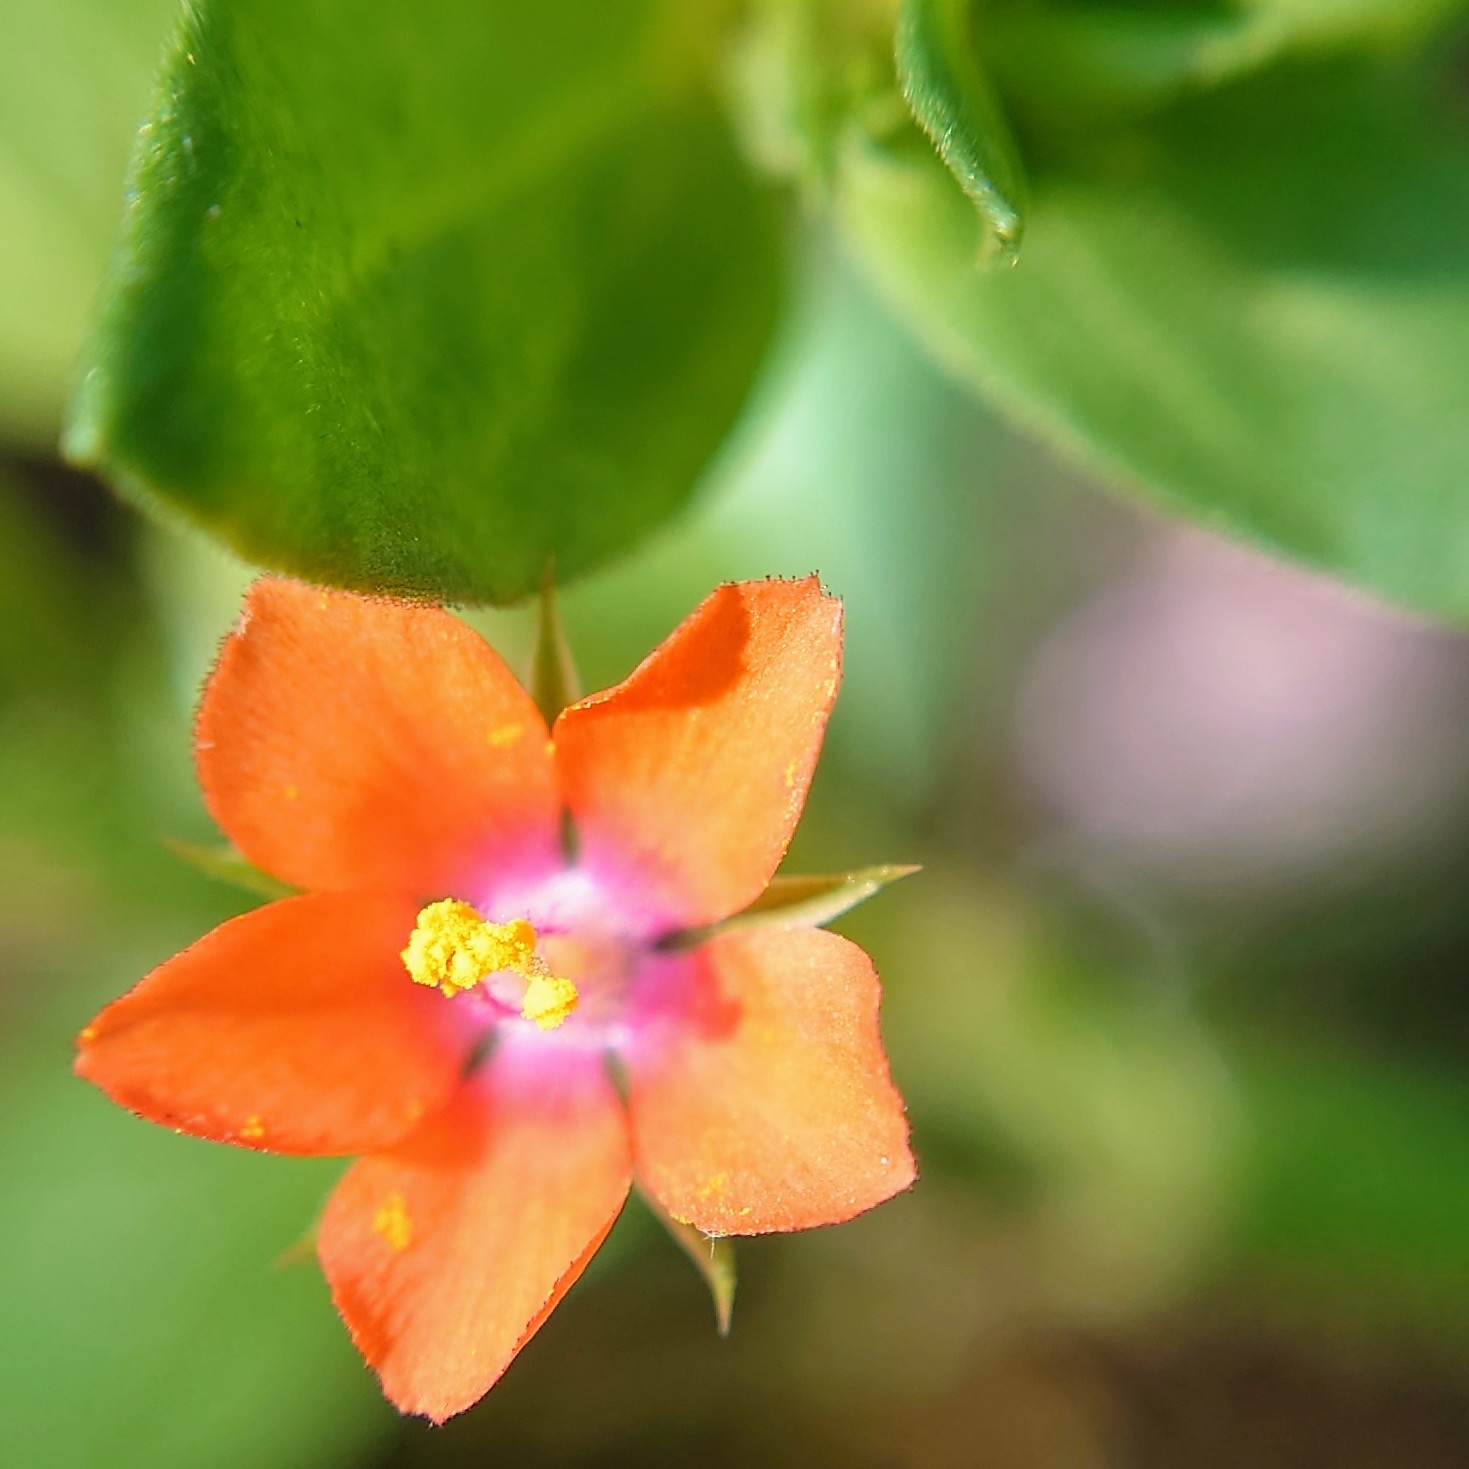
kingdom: Plantae
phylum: Tracheophyta
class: Magnoliopsida
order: Ericales
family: Primulaceae
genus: Lysimachia
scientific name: Lysimachia arvensis
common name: Scarlet pimpernel
